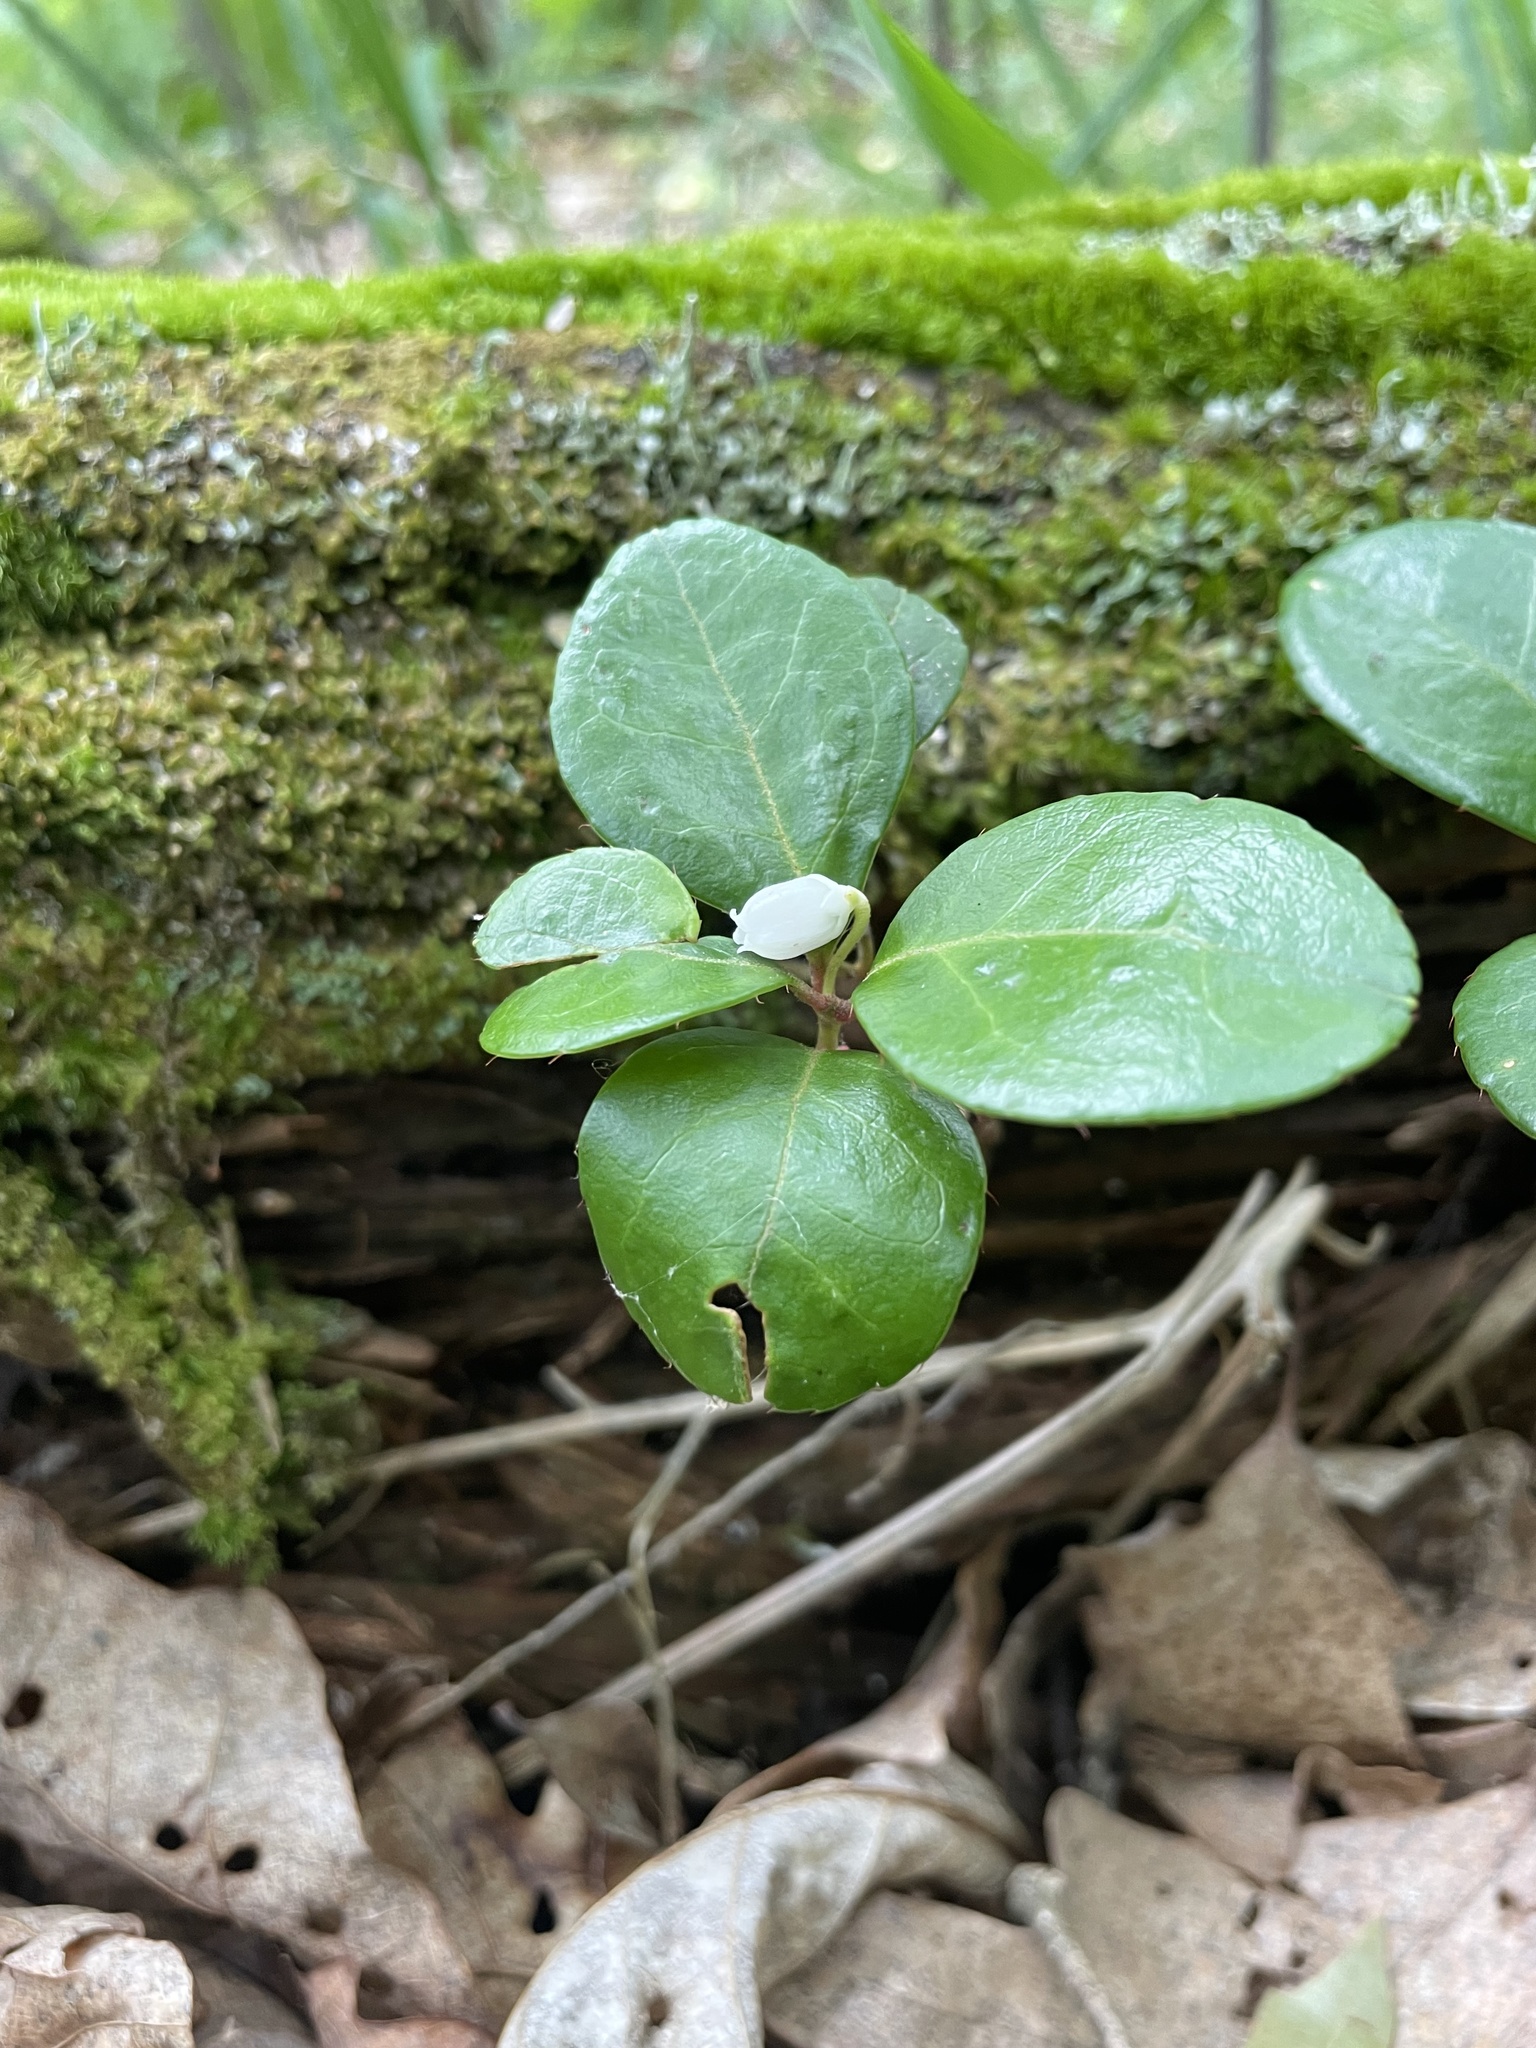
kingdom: Plantae
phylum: Tracheophyta
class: Magnoliopsida
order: Ericales
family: Ericaceae
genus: Gaultheria
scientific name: Gaultheria procumbens
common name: Checkerberry
